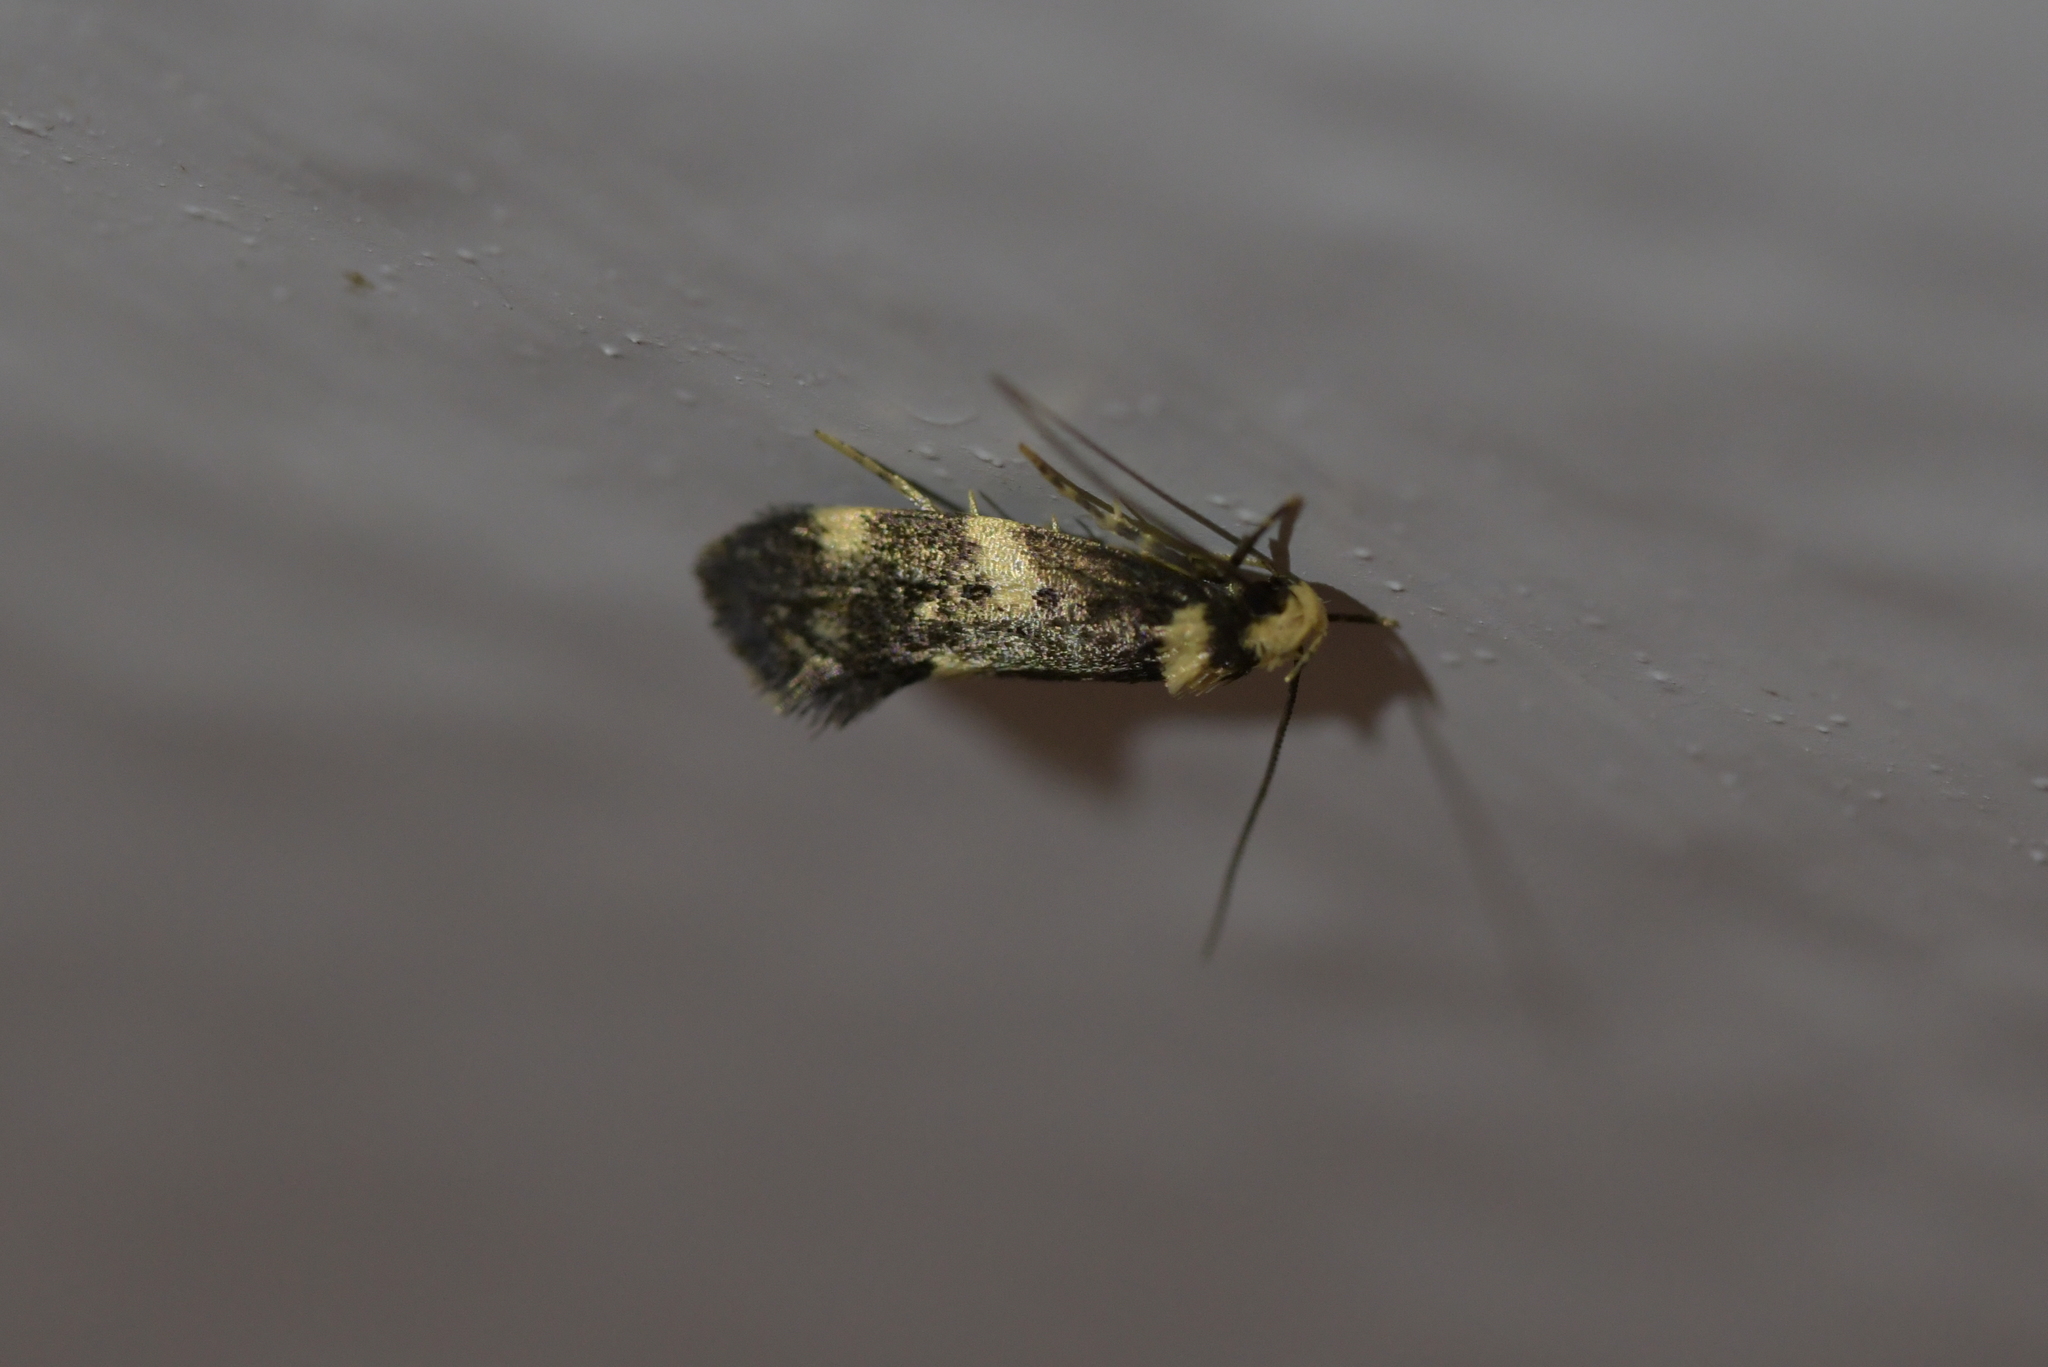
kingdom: Animalia
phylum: Arthropoda
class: Insecta
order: Lepidoptera
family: Oecophoridae
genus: Sphyrelata
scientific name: Sphyrelata amotella
